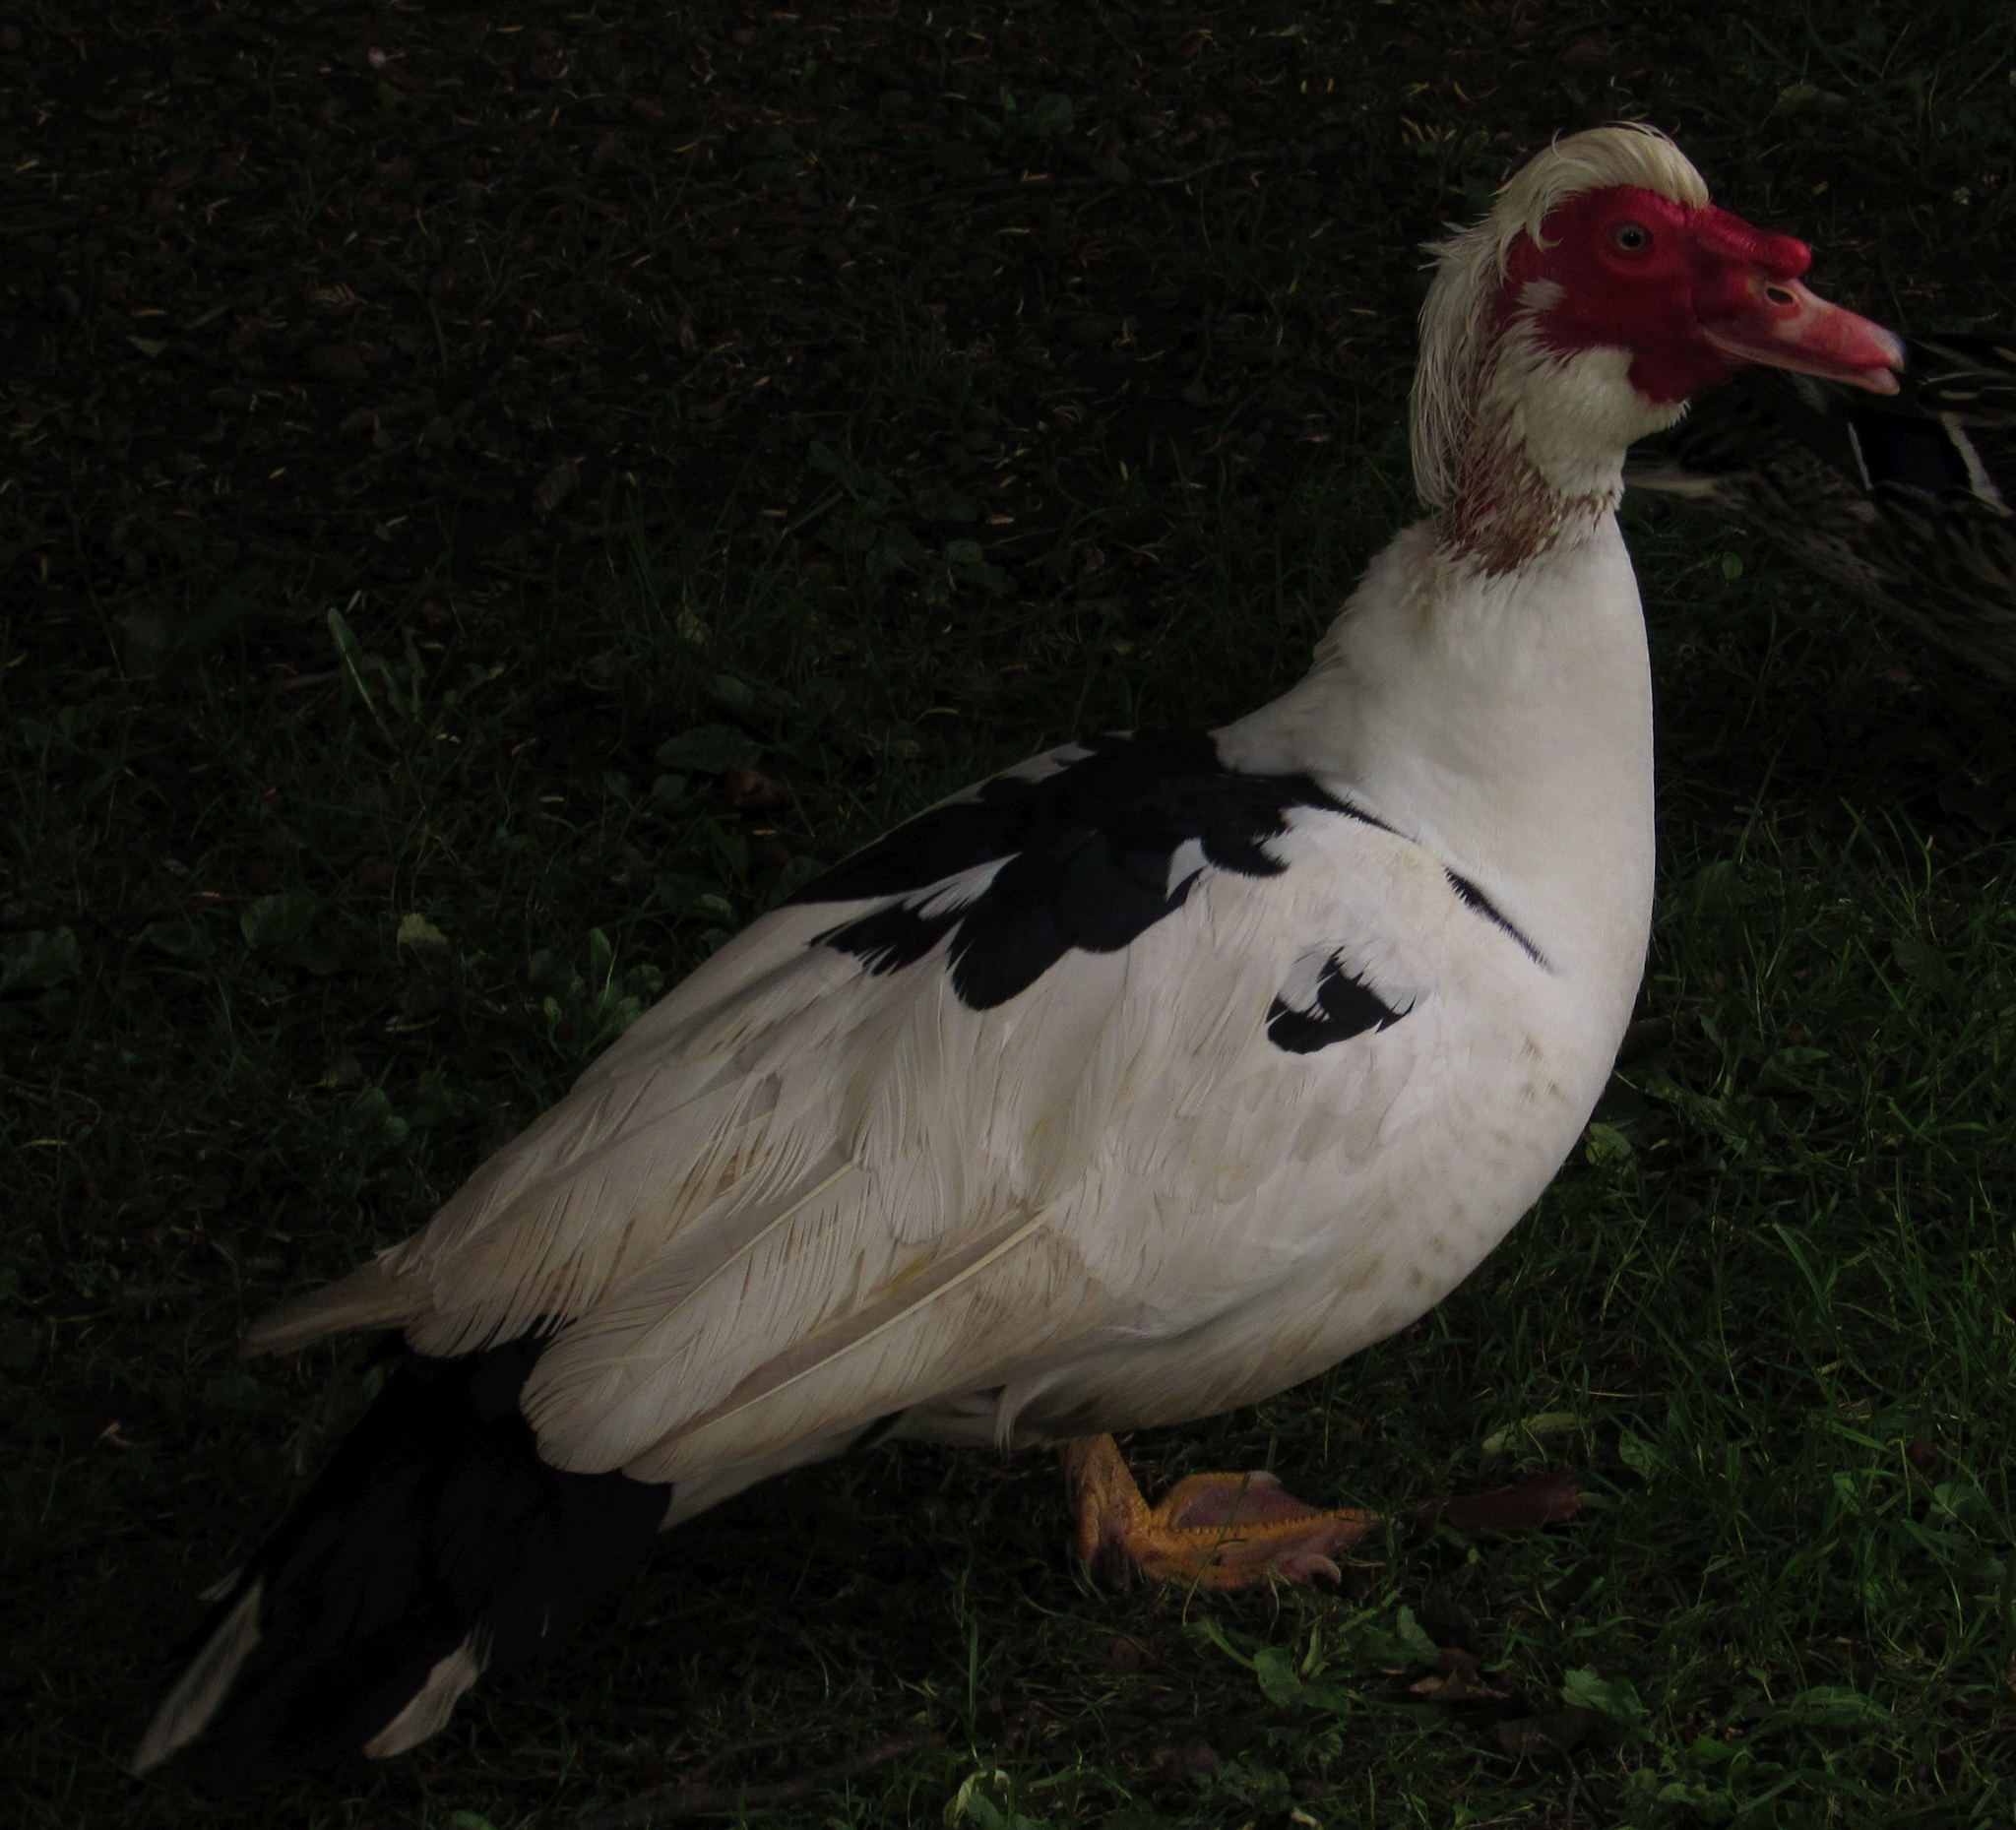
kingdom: Animalia
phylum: Chordata
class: Aves
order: Anseriformes
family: Anatidae
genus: Cairina
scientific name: Cairina moschata
